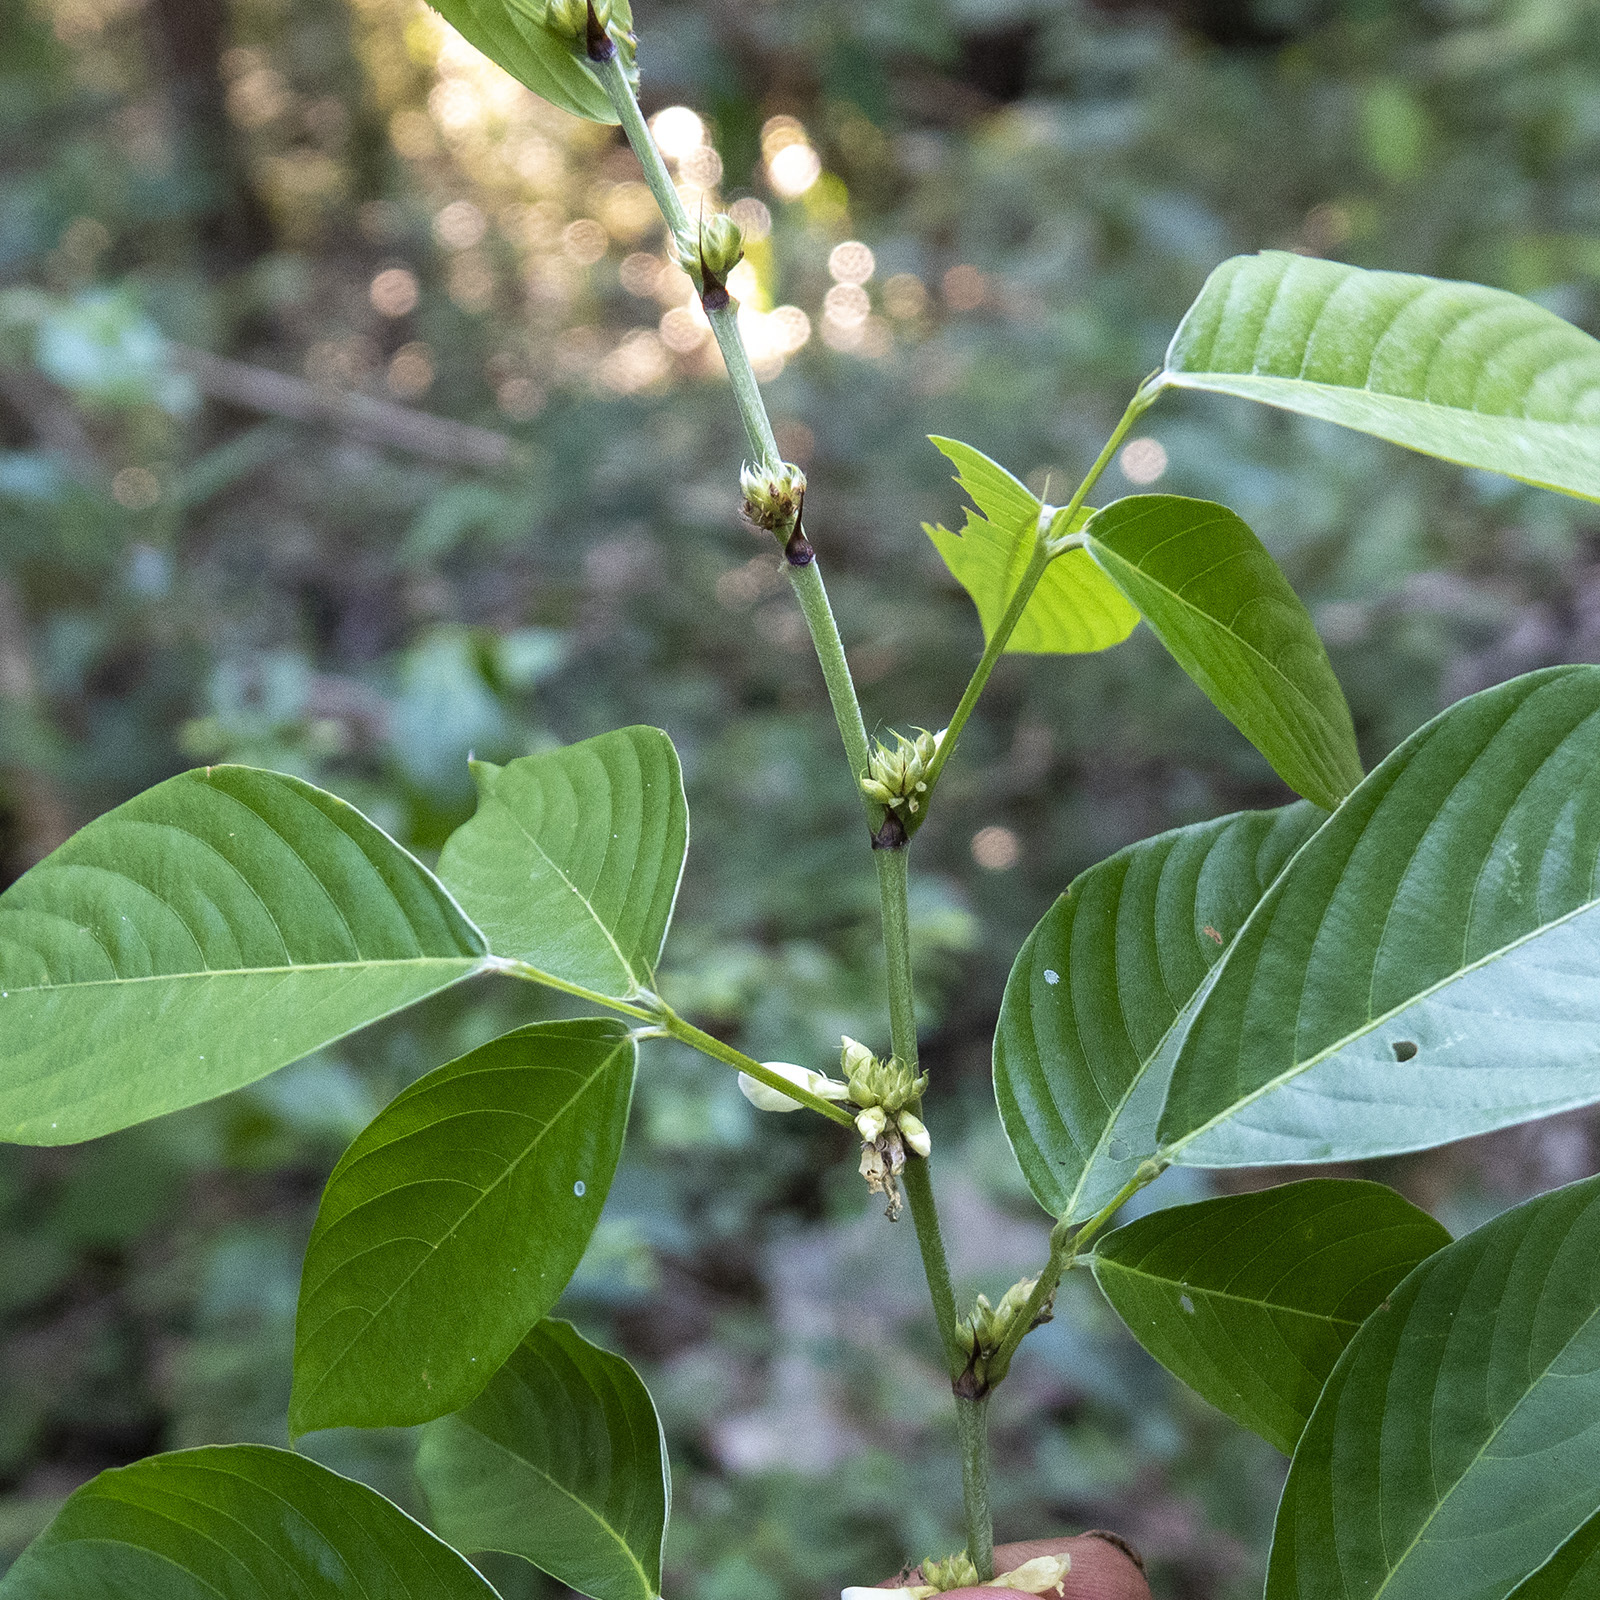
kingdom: Plantae
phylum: Tracheophyta
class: Magnoliopsida
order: Fabales
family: Fabaceae
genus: Dendrolobium
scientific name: Dendrolobium triangulare
